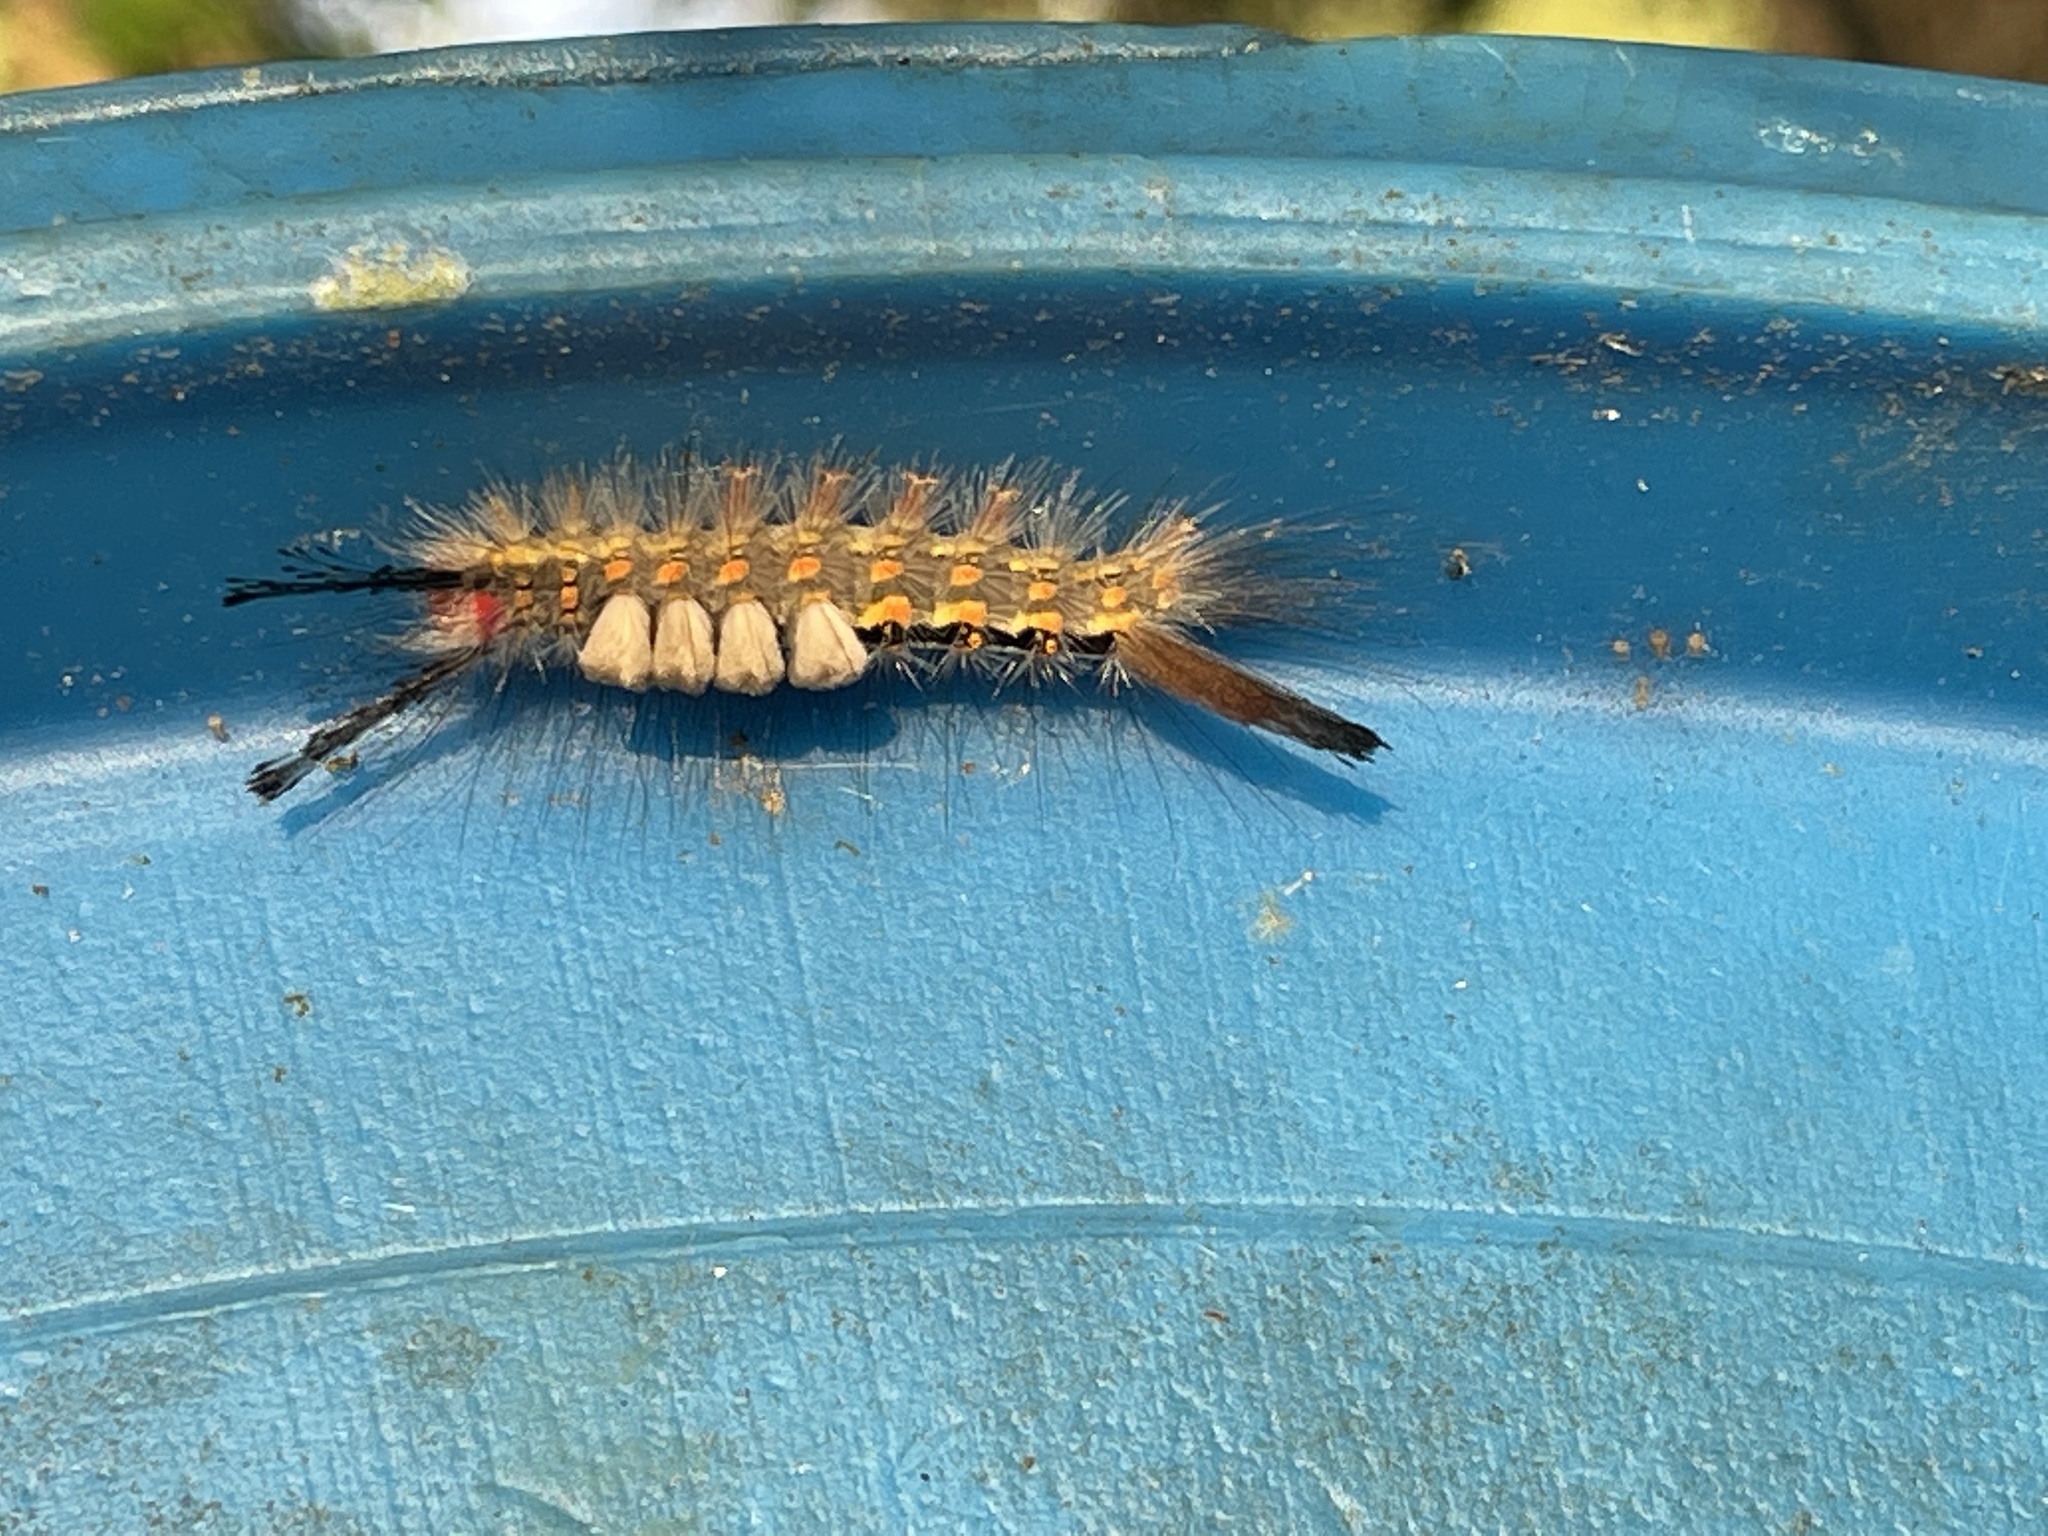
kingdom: Animalia
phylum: Arthropoda
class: Insecta
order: Lepidoptera
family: Erebidae
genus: Orgyia
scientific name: Orgyia detrita
